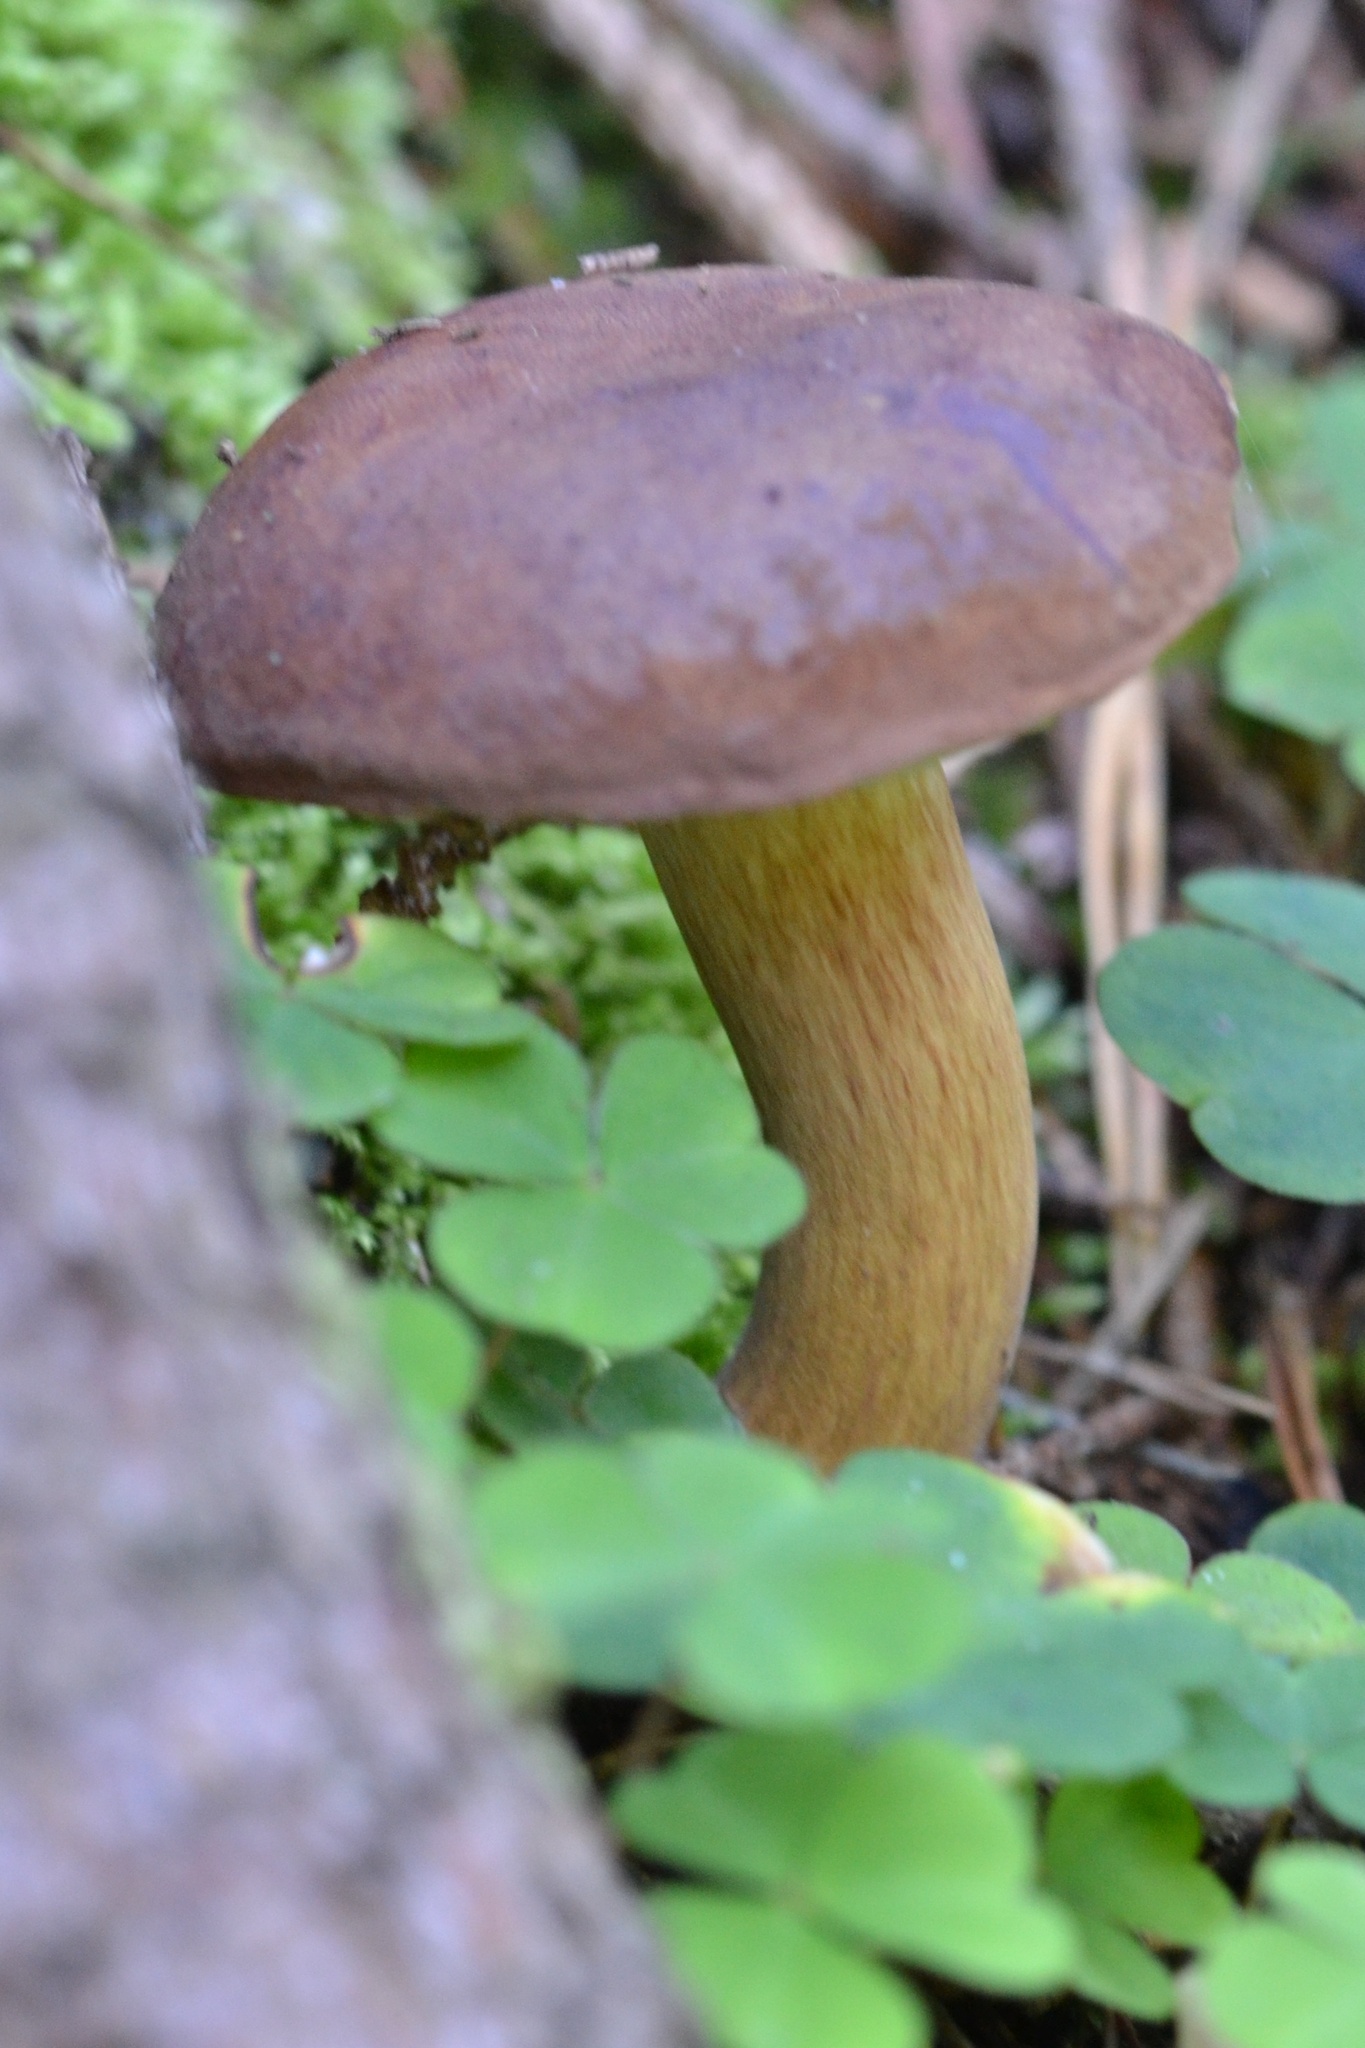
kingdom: Fungi
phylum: Basidiomycota
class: Agaricomycetes
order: Boletales
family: Boletaceae
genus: Imleria
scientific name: Imleria badia
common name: Bay bolete
